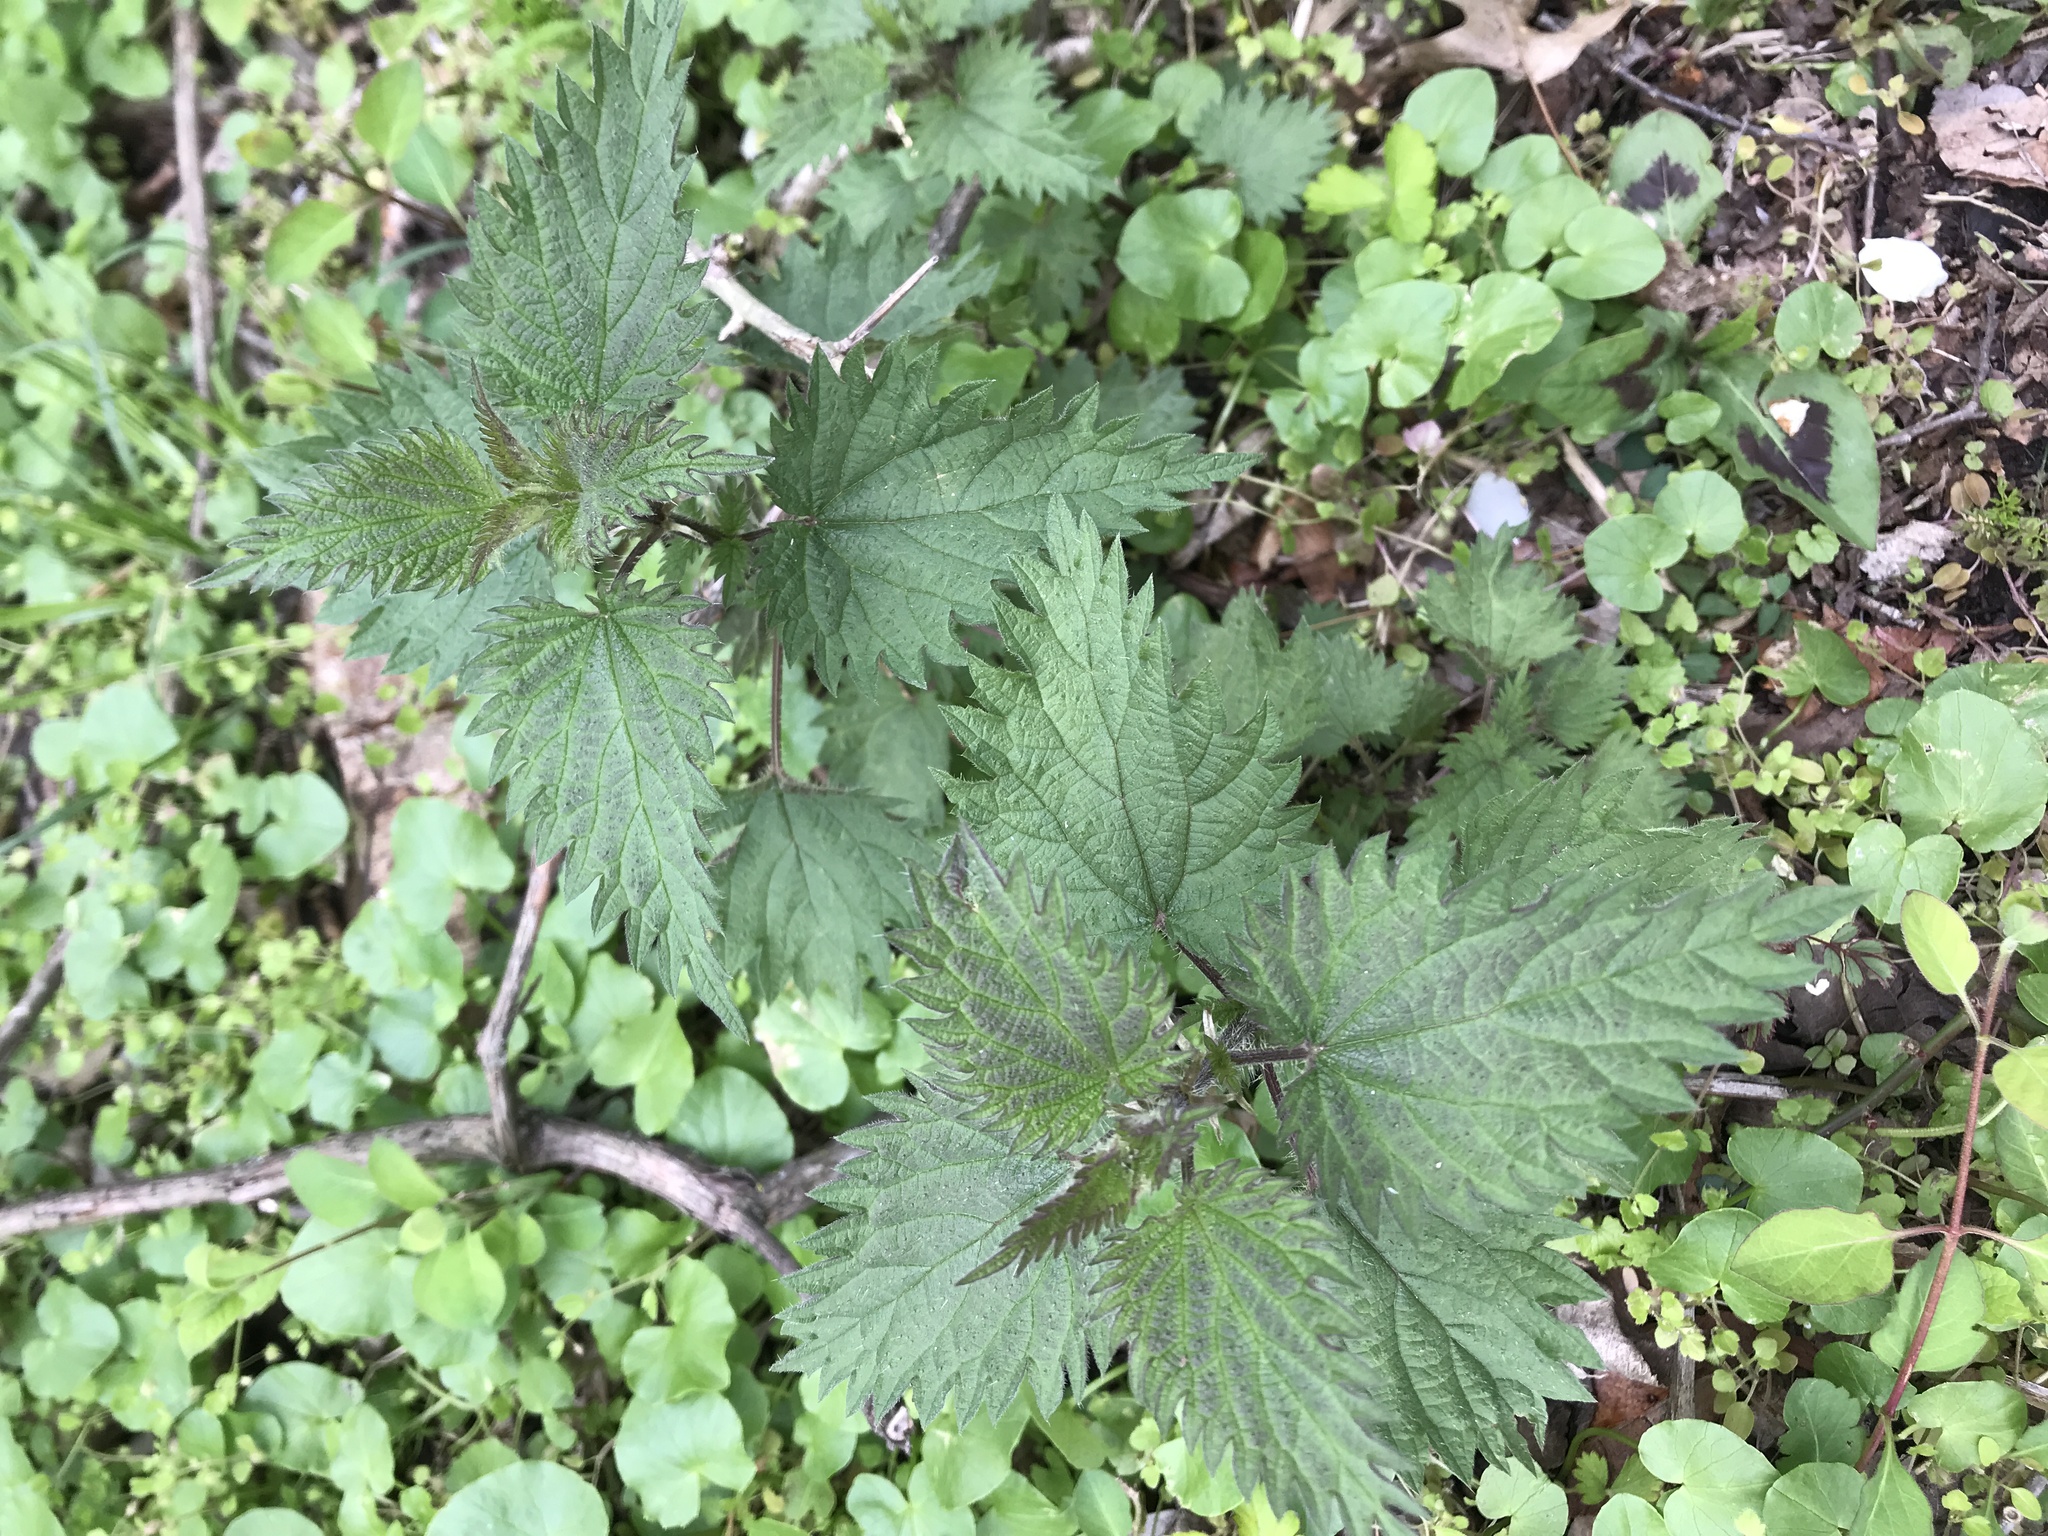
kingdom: Plantae
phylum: Tracheophyta
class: Magnoliopsida
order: Rosales
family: Urticaceae
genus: Urtica
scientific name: Urtica dioica
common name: Common nettle
